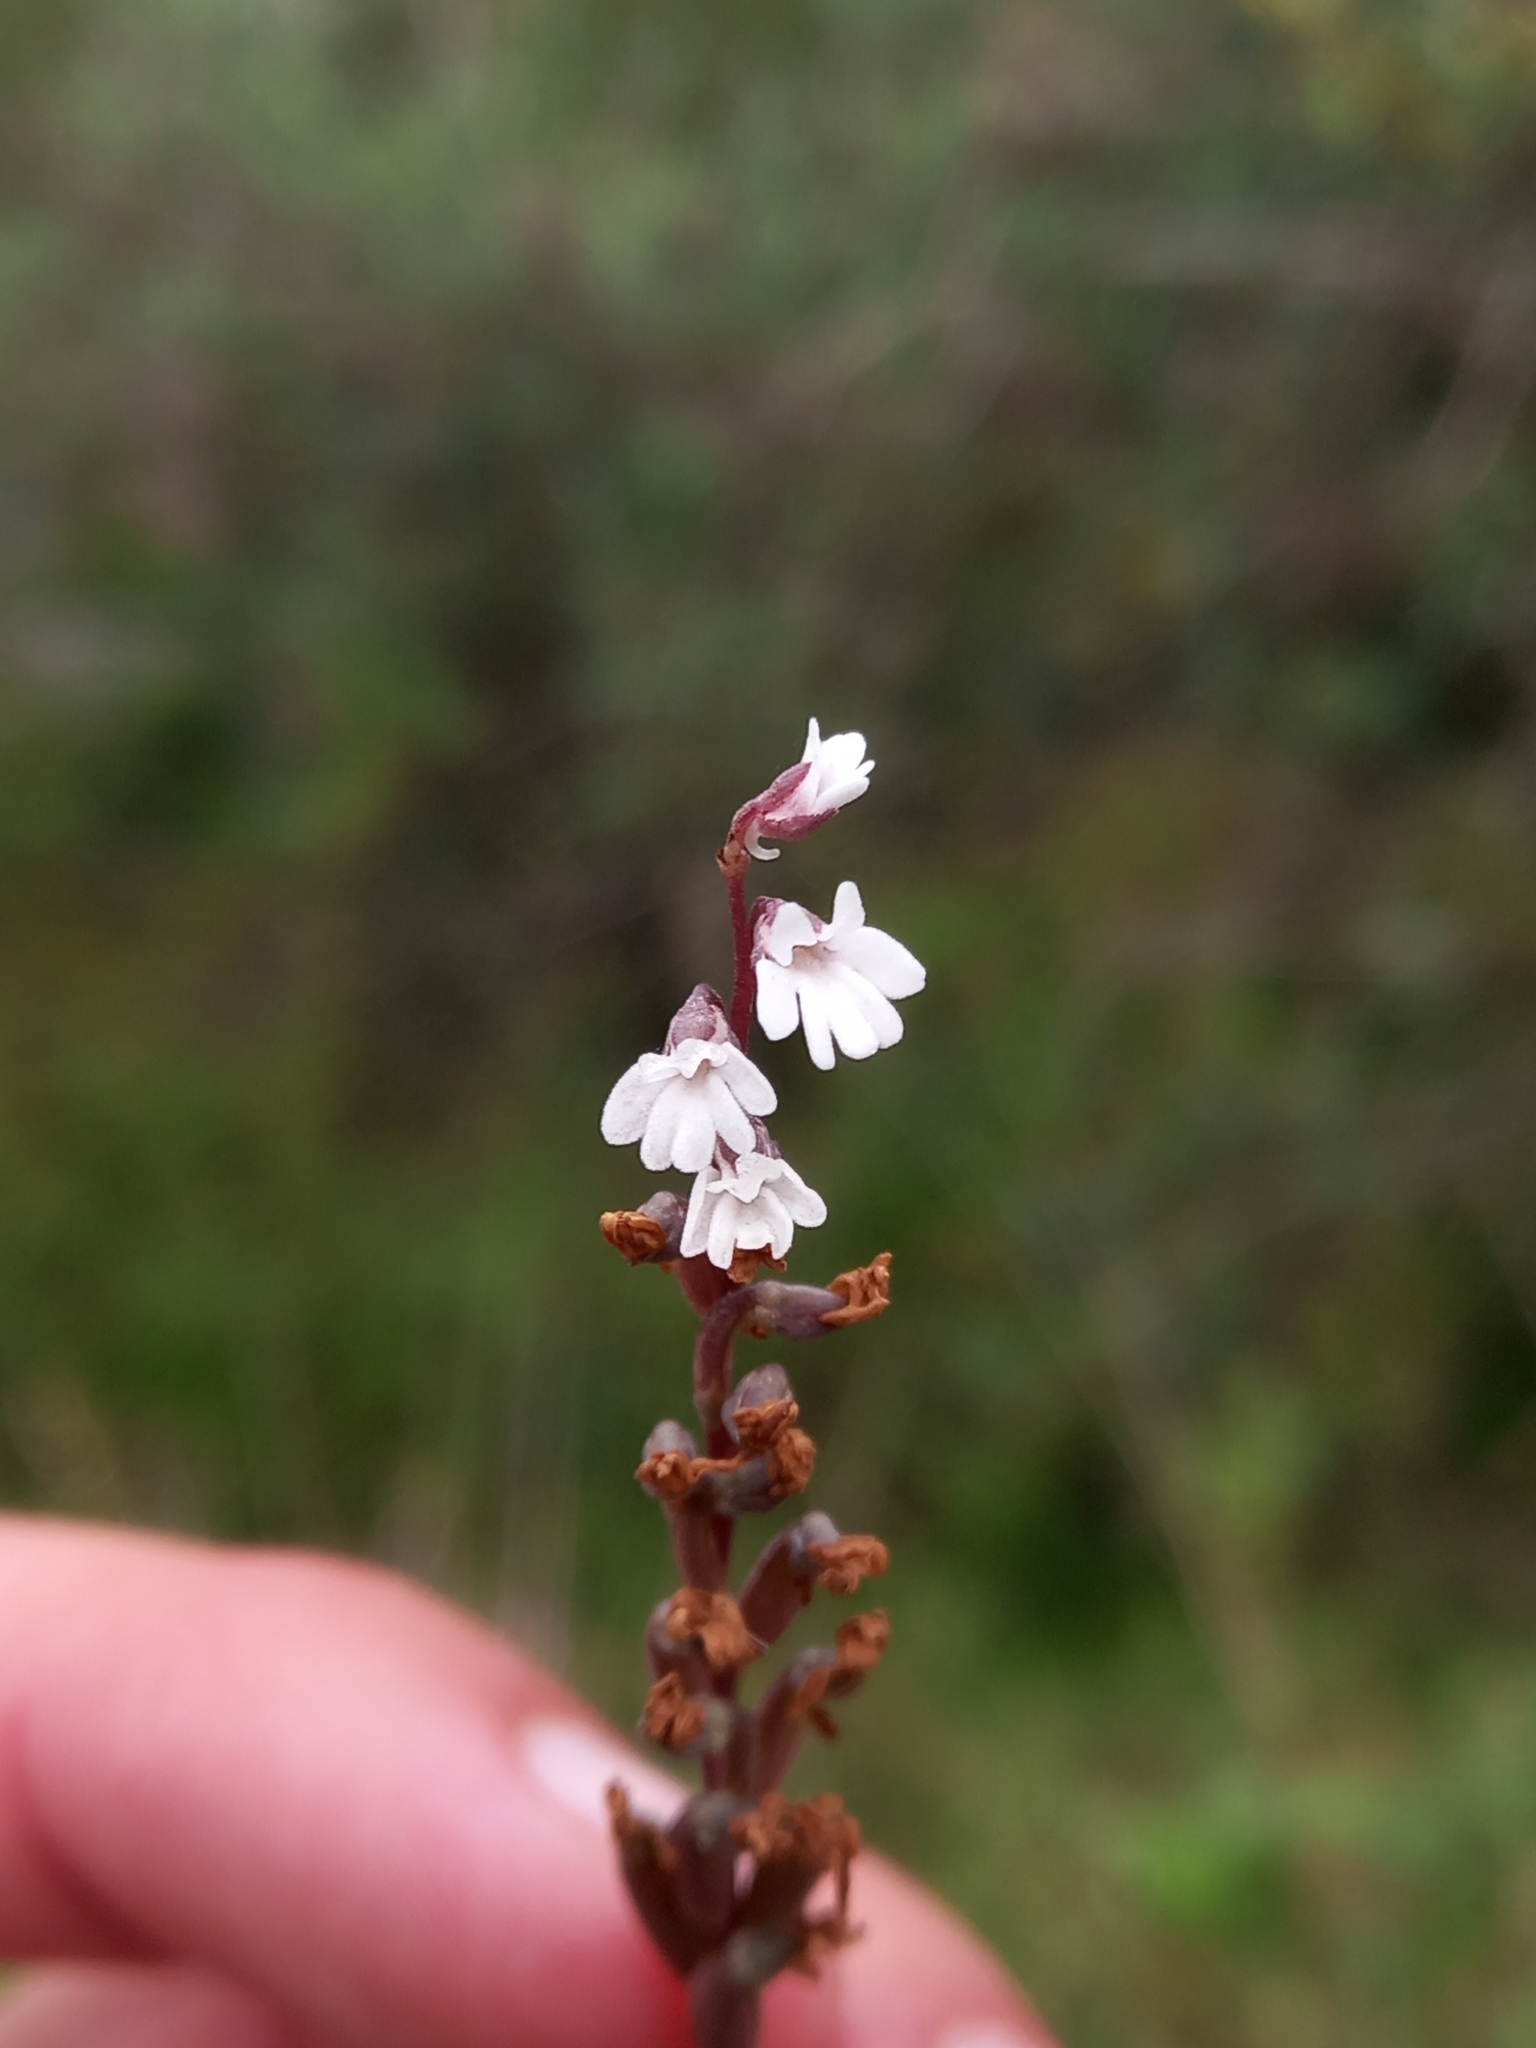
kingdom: Plantae
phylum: Tracheophyta
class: Liliopsida
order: Asparagales
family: Orchidaceae
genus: Holothrix
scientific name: Holothrix parviflora
